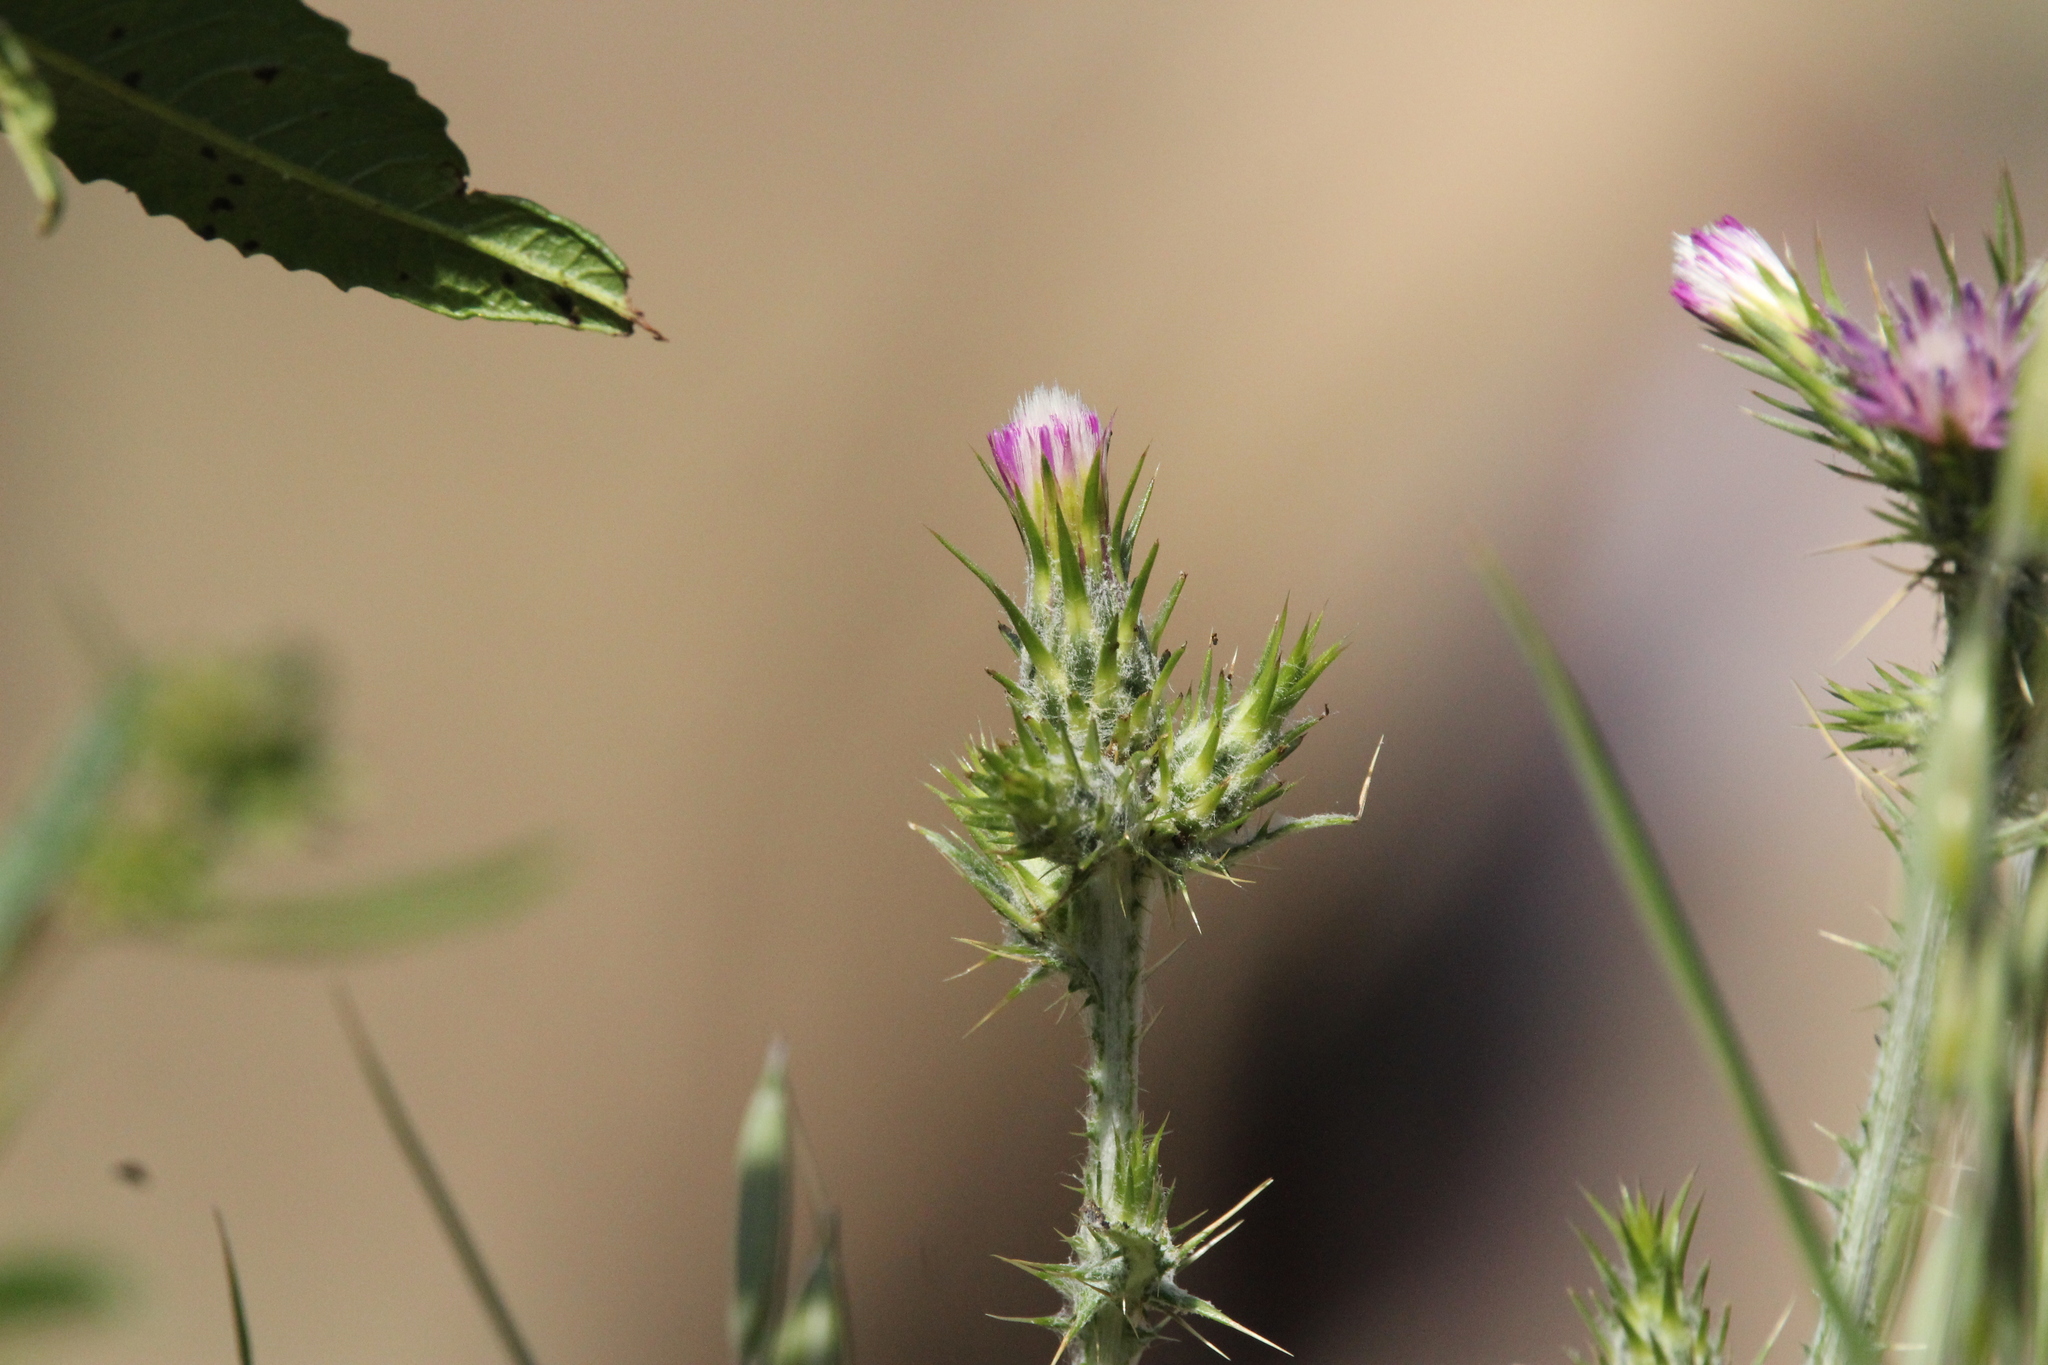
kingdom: Plantae
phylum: Tracheophyta
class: Magnoliopsida
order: Asterales
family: Asteraceae
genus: Carduus
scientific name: Carduus pycnocephalus
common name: Plymouth thistle
